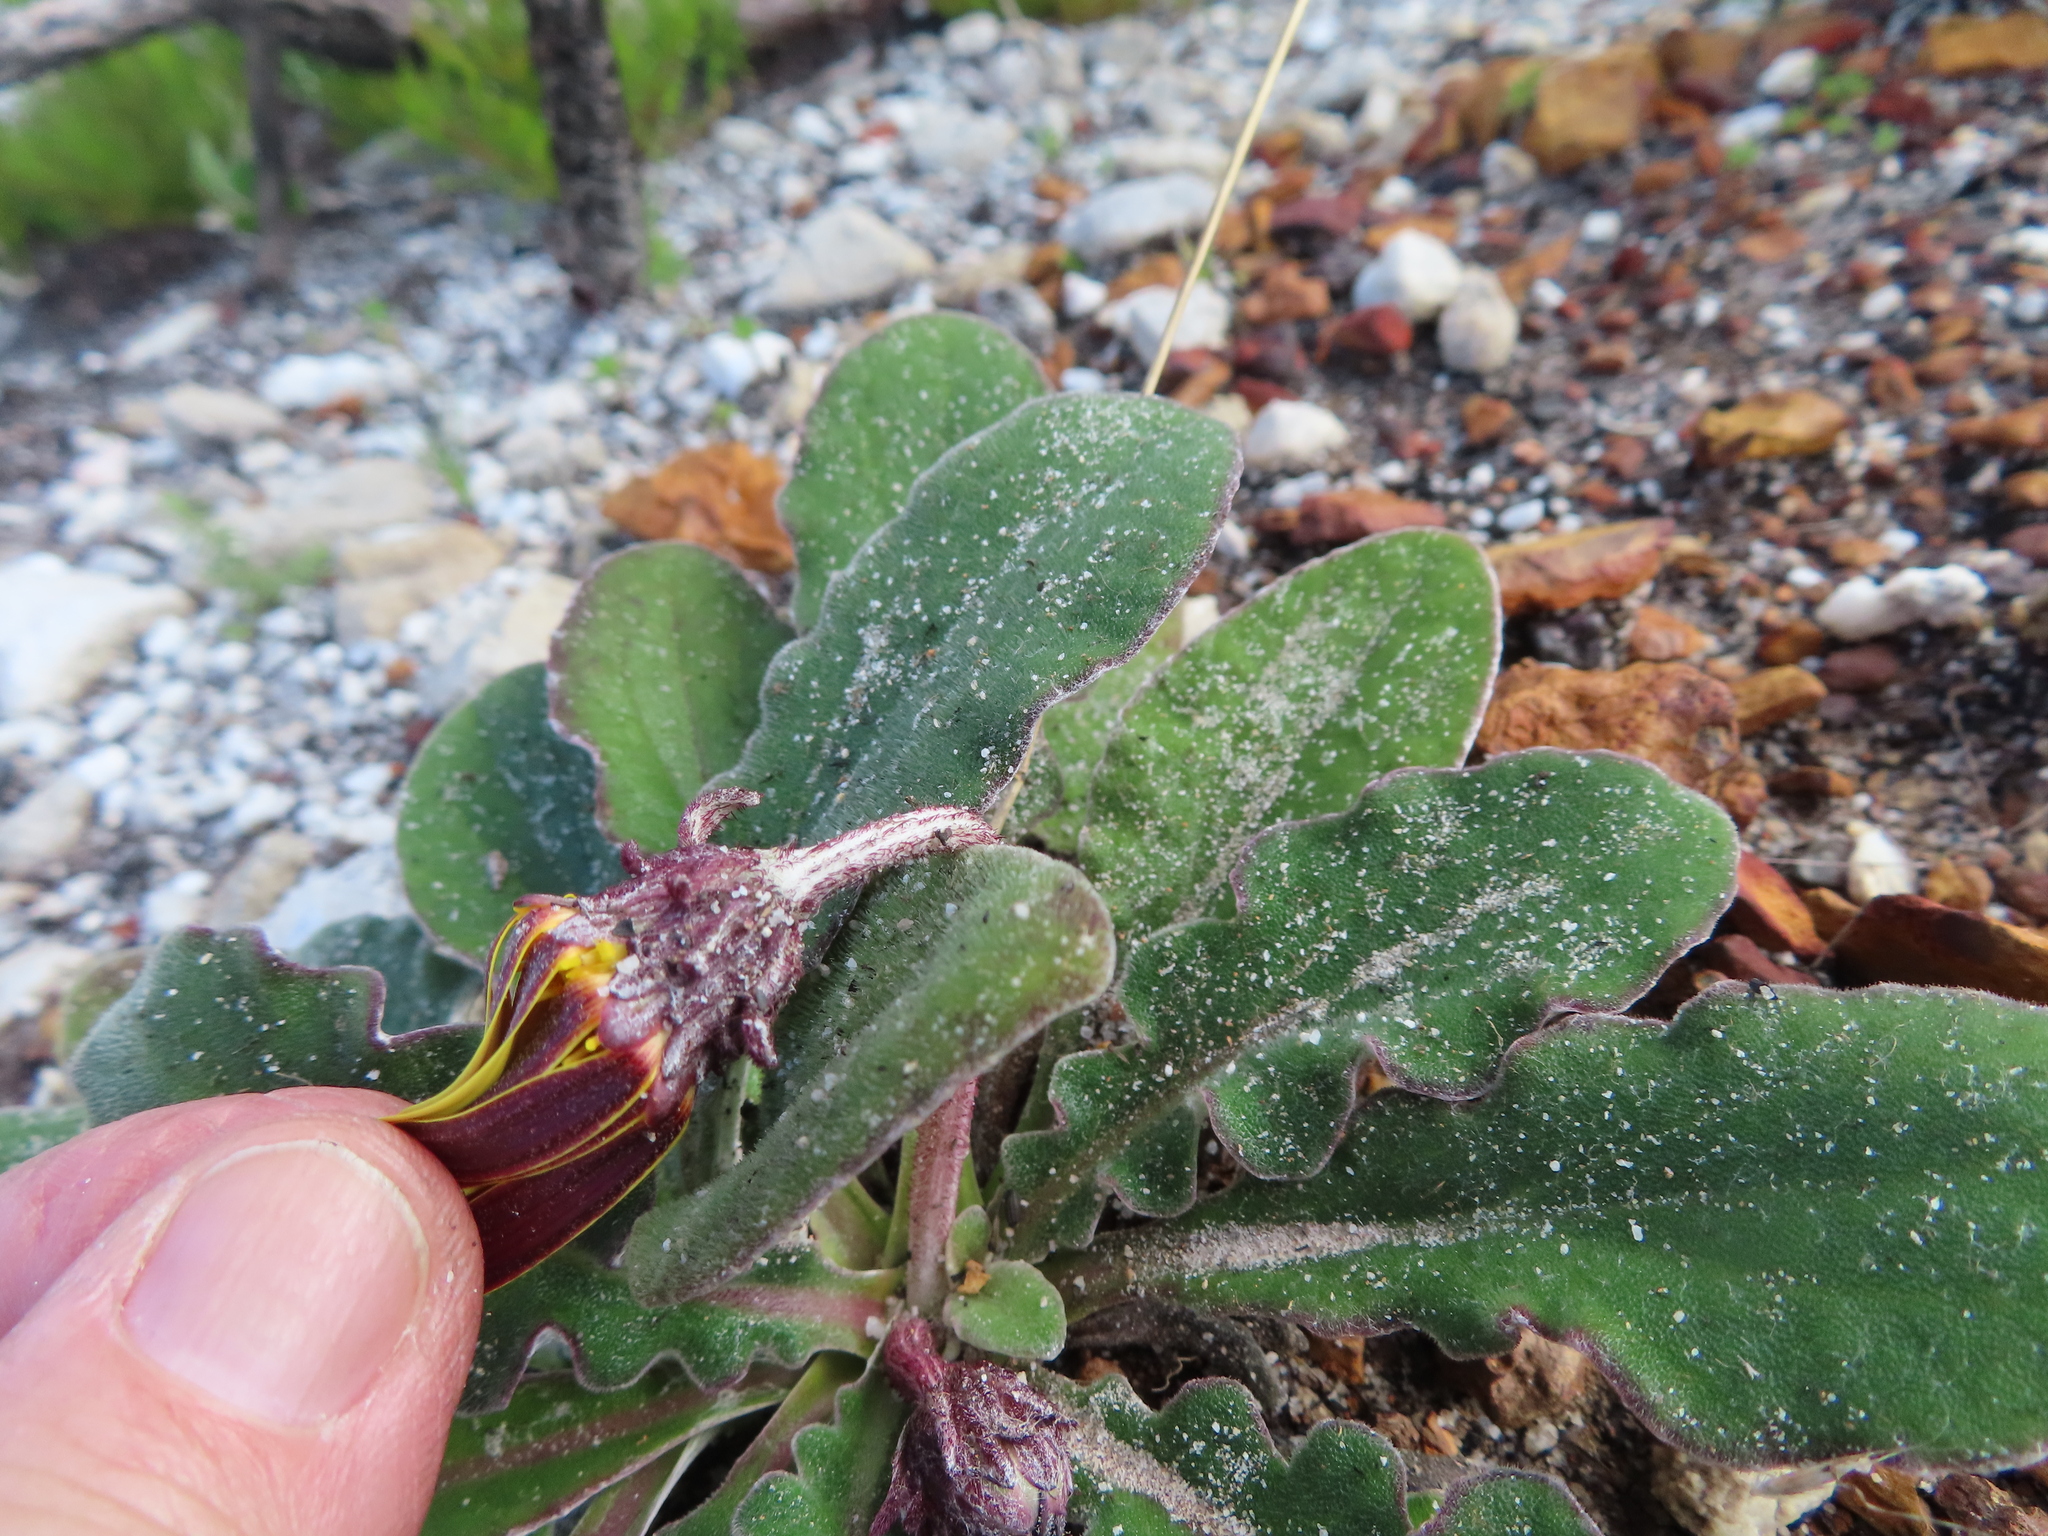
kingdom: Plantae
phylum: Tracheophyta
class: Magnoliopsida
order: Asterales
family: Asteraceae
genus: Haplocarpha
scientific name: Haplocarpha lanata
